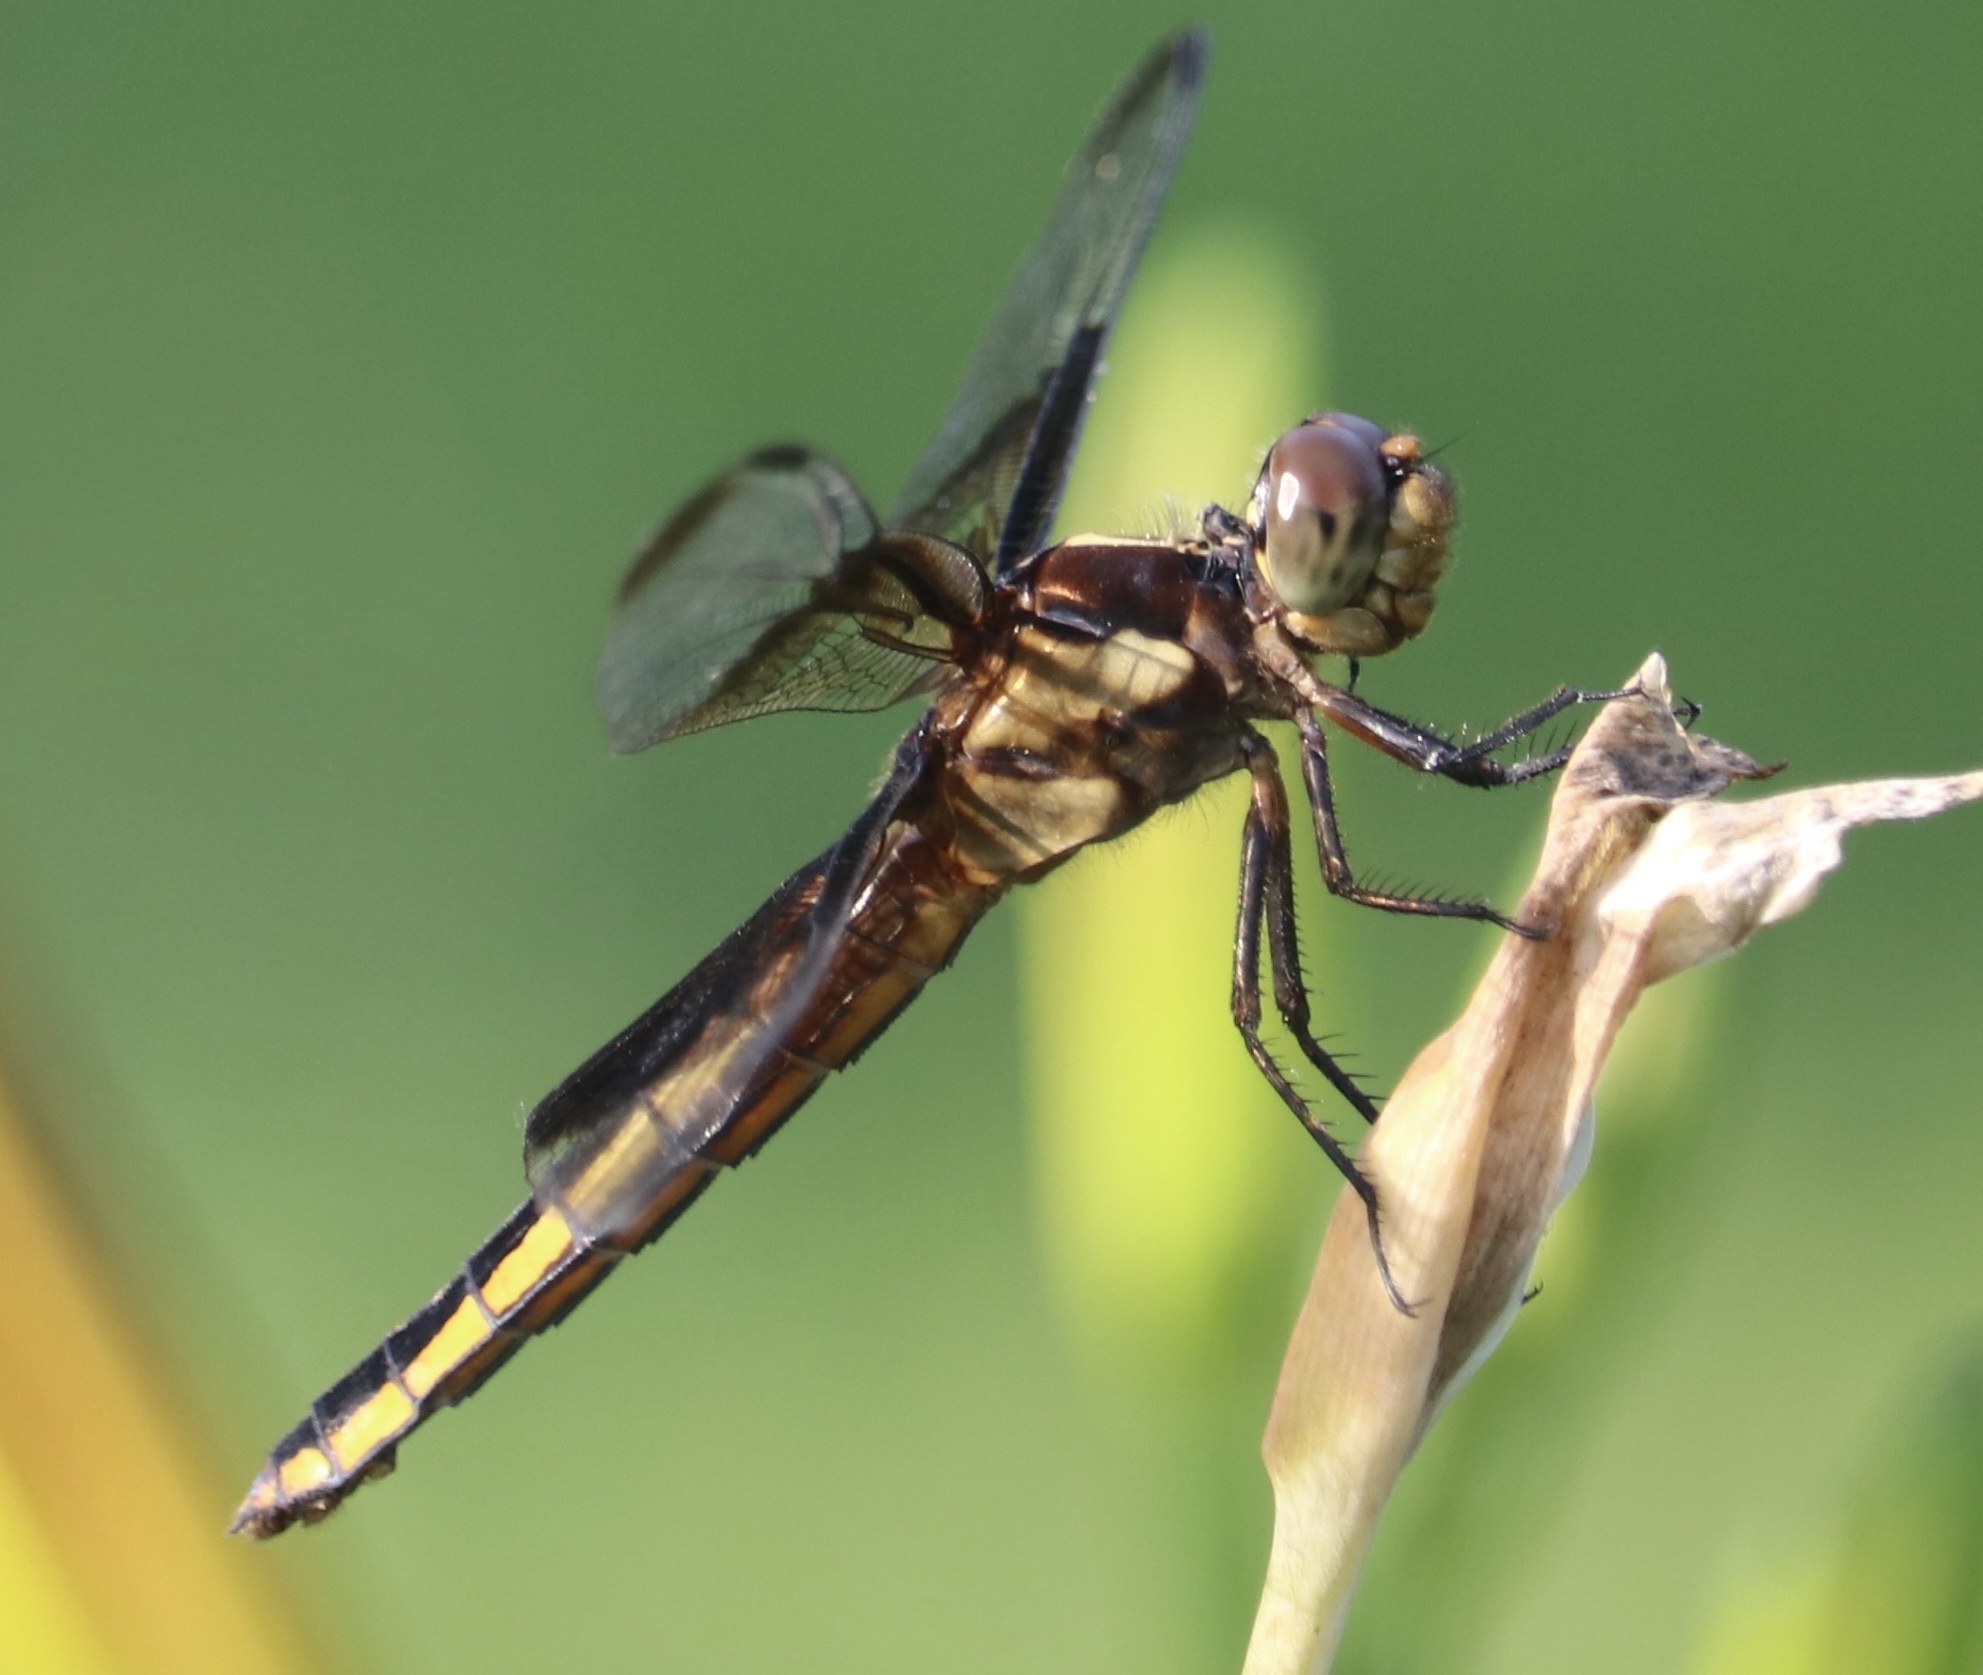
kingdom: Animalia
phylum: Arthropoda
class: Insecta
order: Odonata
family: Libellulidae
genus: Libellula
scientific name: Libellula luctuosa
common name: Widow skimmer
